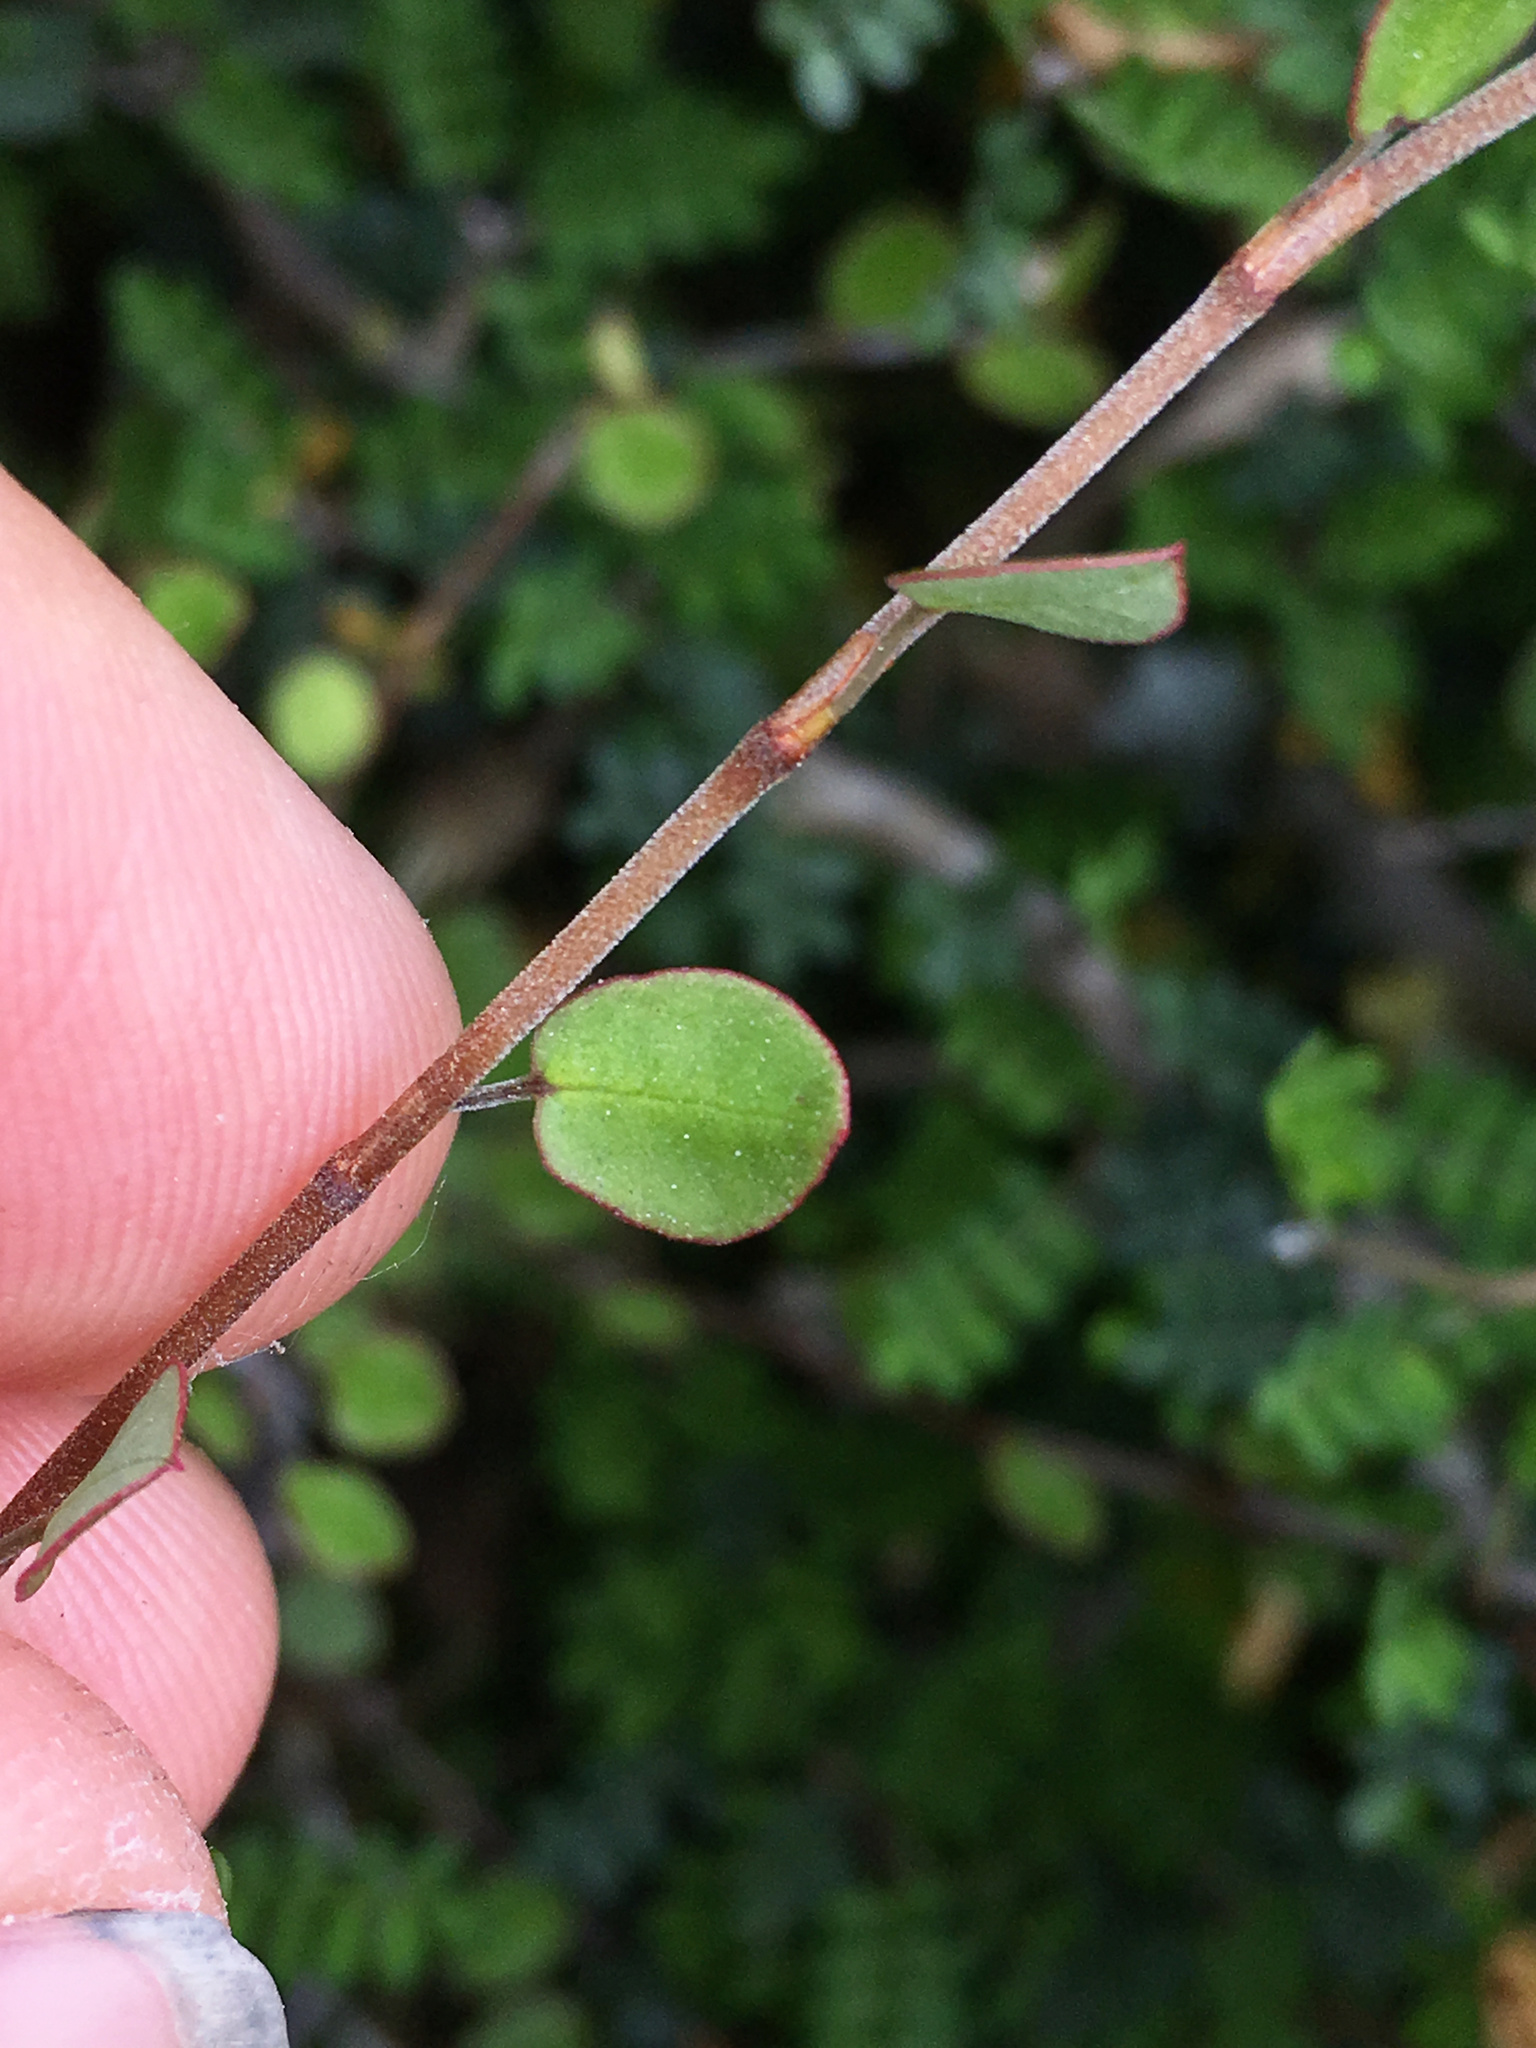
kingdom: Plantae
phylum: Tracheophyta
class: Magnoliopsida
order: Caryophyllales
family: Polygonaceae
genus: Muehlenbeckia
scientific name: Muehlenbeckia complexa
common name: Wireplant
